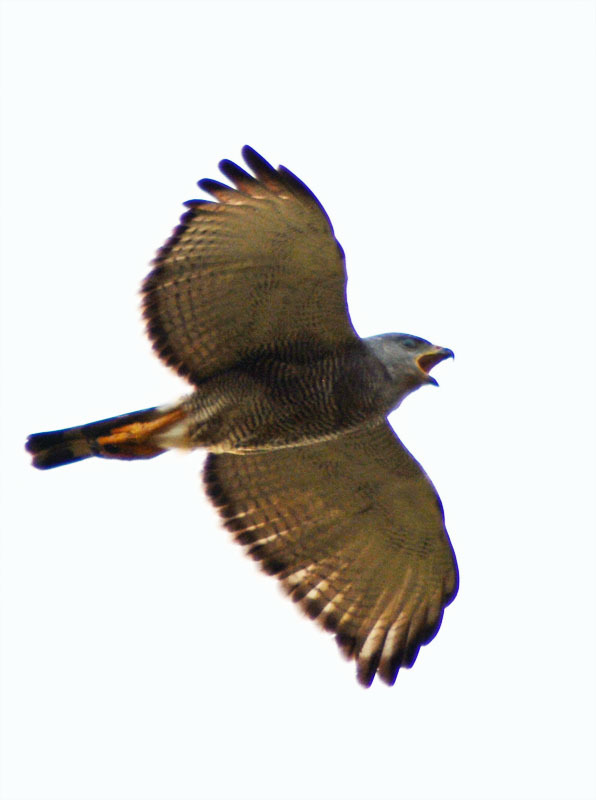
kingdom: Animalia
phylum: Chordata
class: Aves
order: Accipitriformes
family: Accipitridae
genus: Buteo
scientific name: Buteo nitidus
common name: Grey-lined hawk
